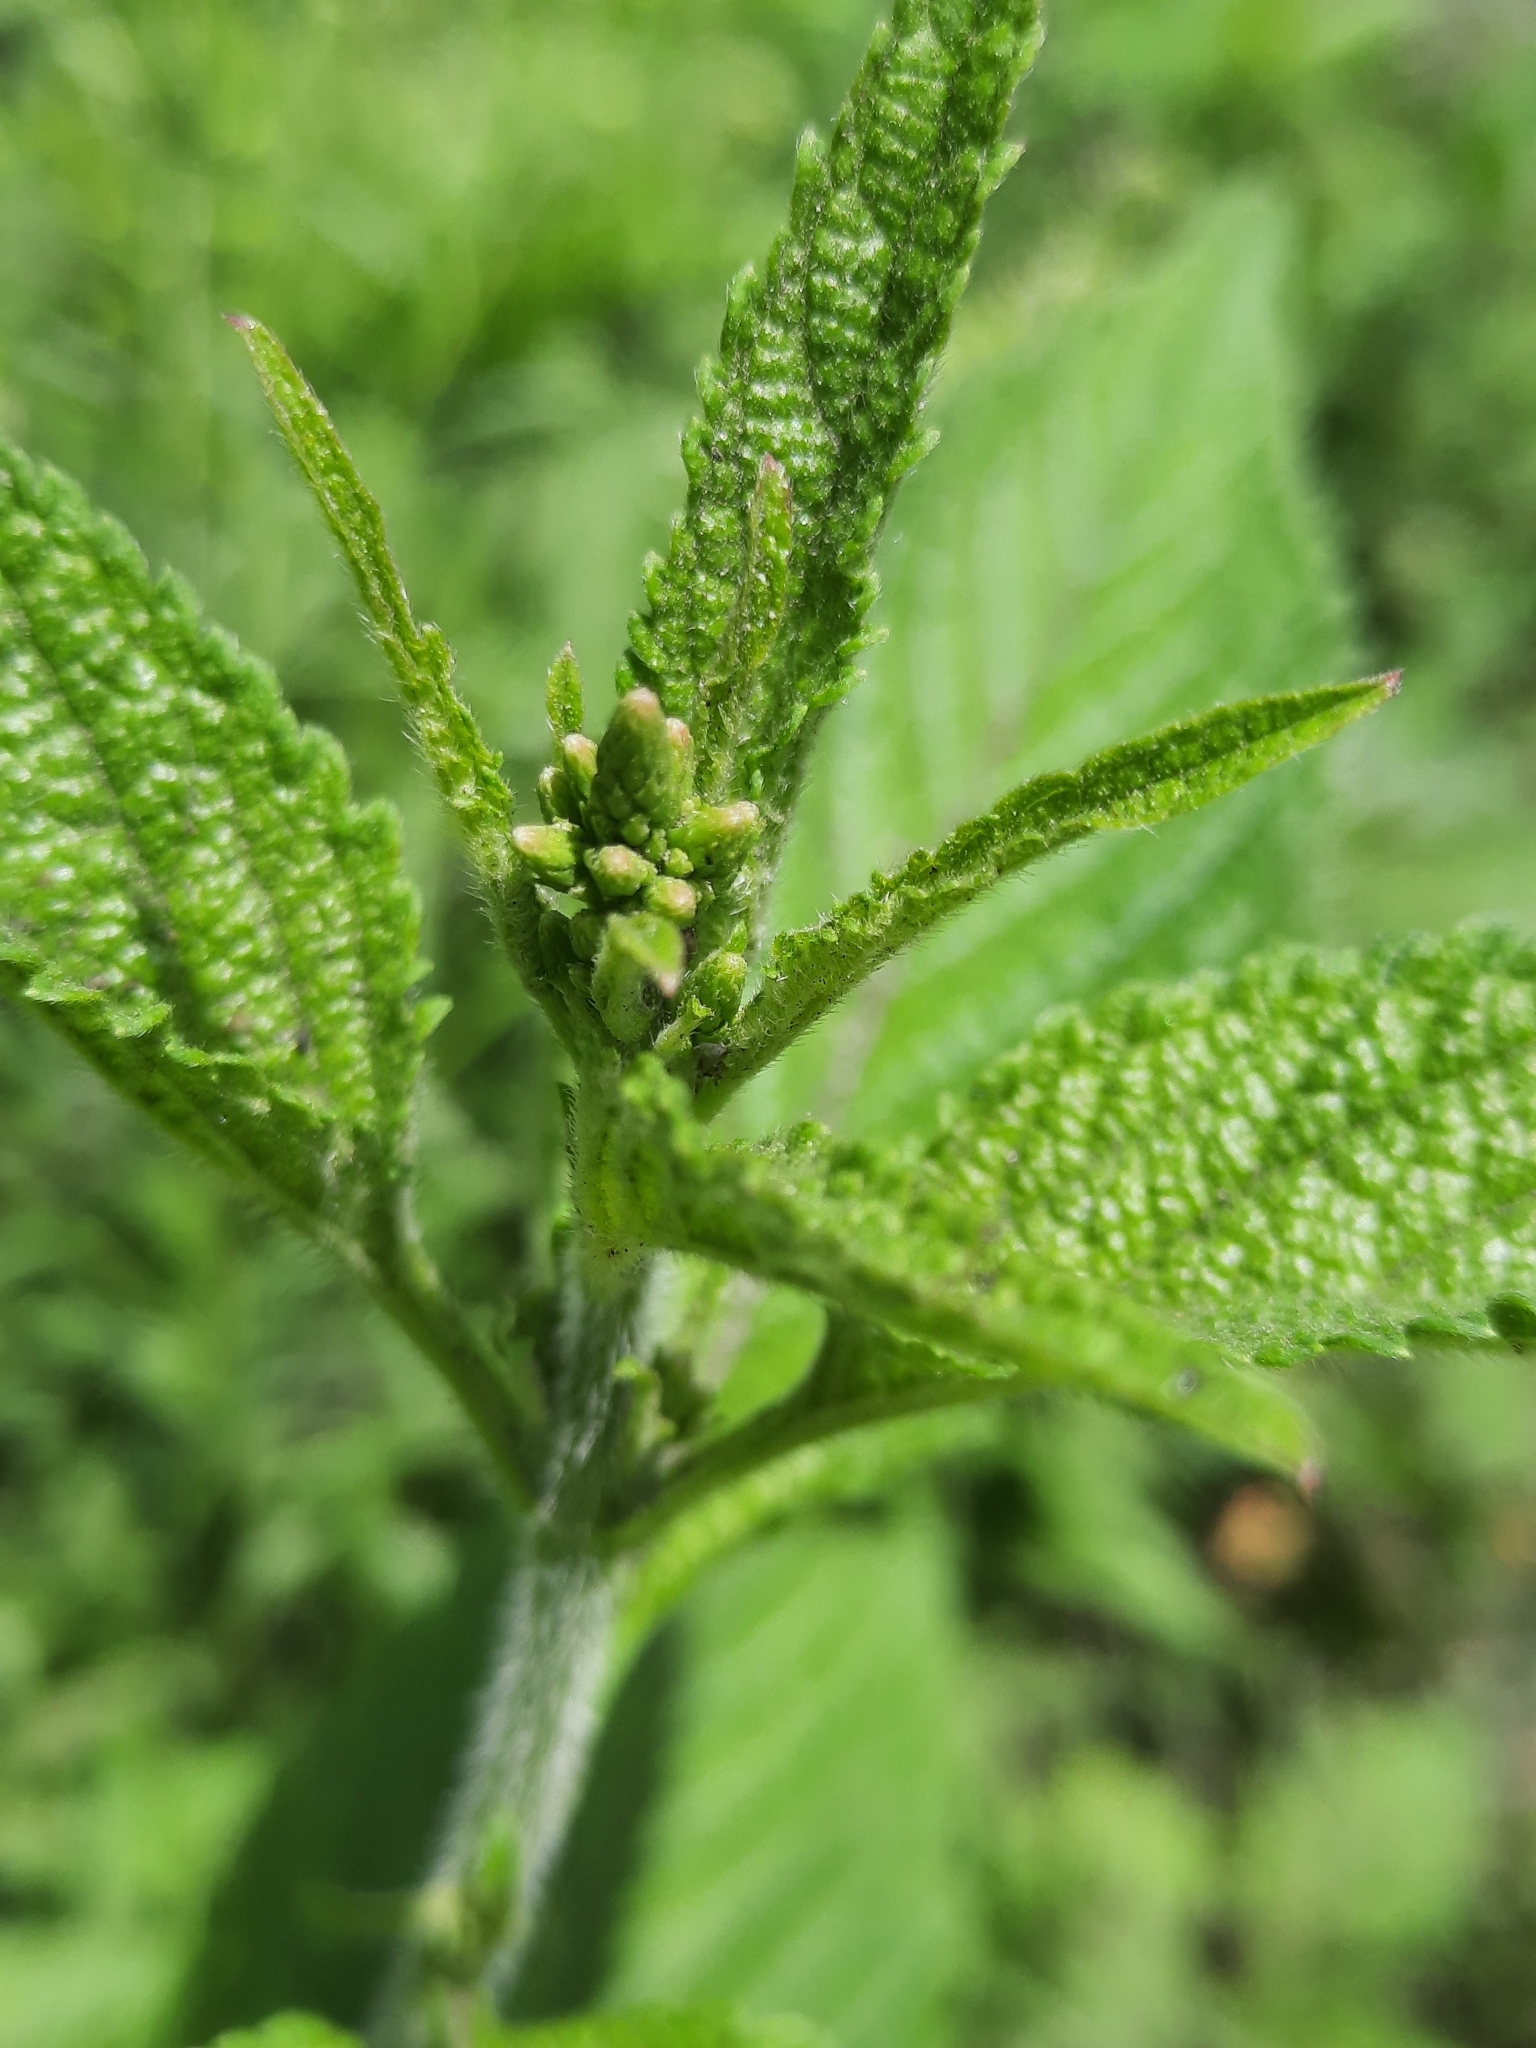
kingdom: Plantae
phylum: Tracheophyta
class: Magnoliopsida
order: Lamiales
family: Verbenaceae
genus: Verbena
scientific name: Verbena urticifolia
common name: Nettle-leaved vervain
